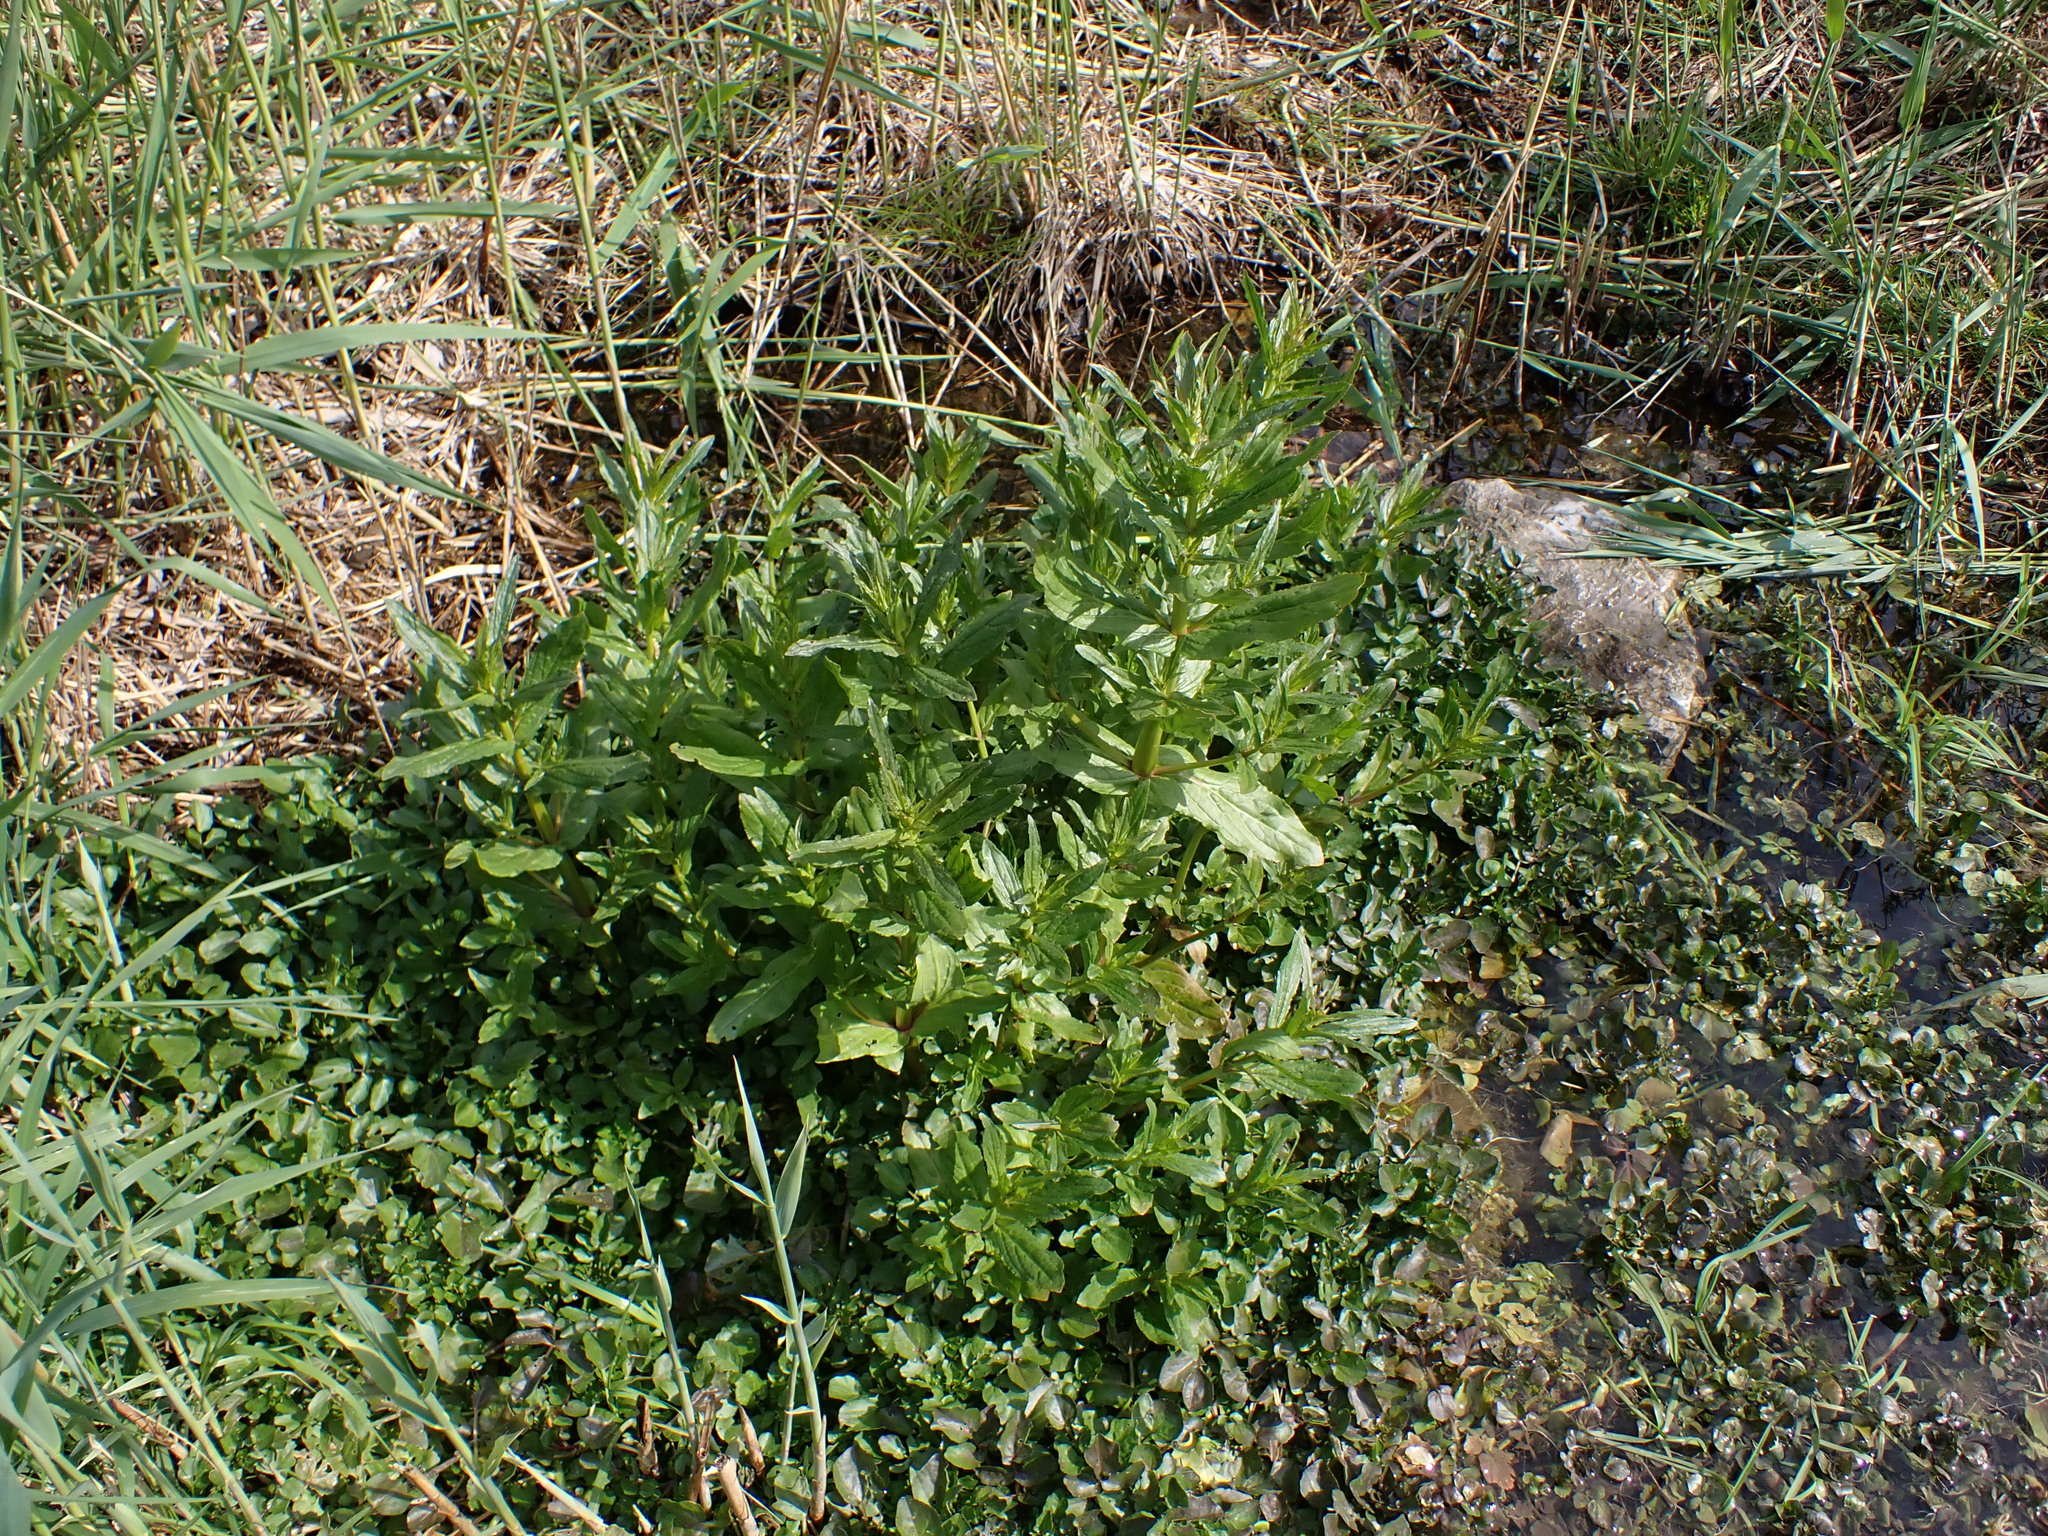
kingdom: Plantae
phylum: Tracheophyta
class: Magnoliopsida
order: Lamiales
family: Plantaginaceae
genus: Veronica
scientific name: Veronica anagallis-aquatica
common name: Water speedwell
